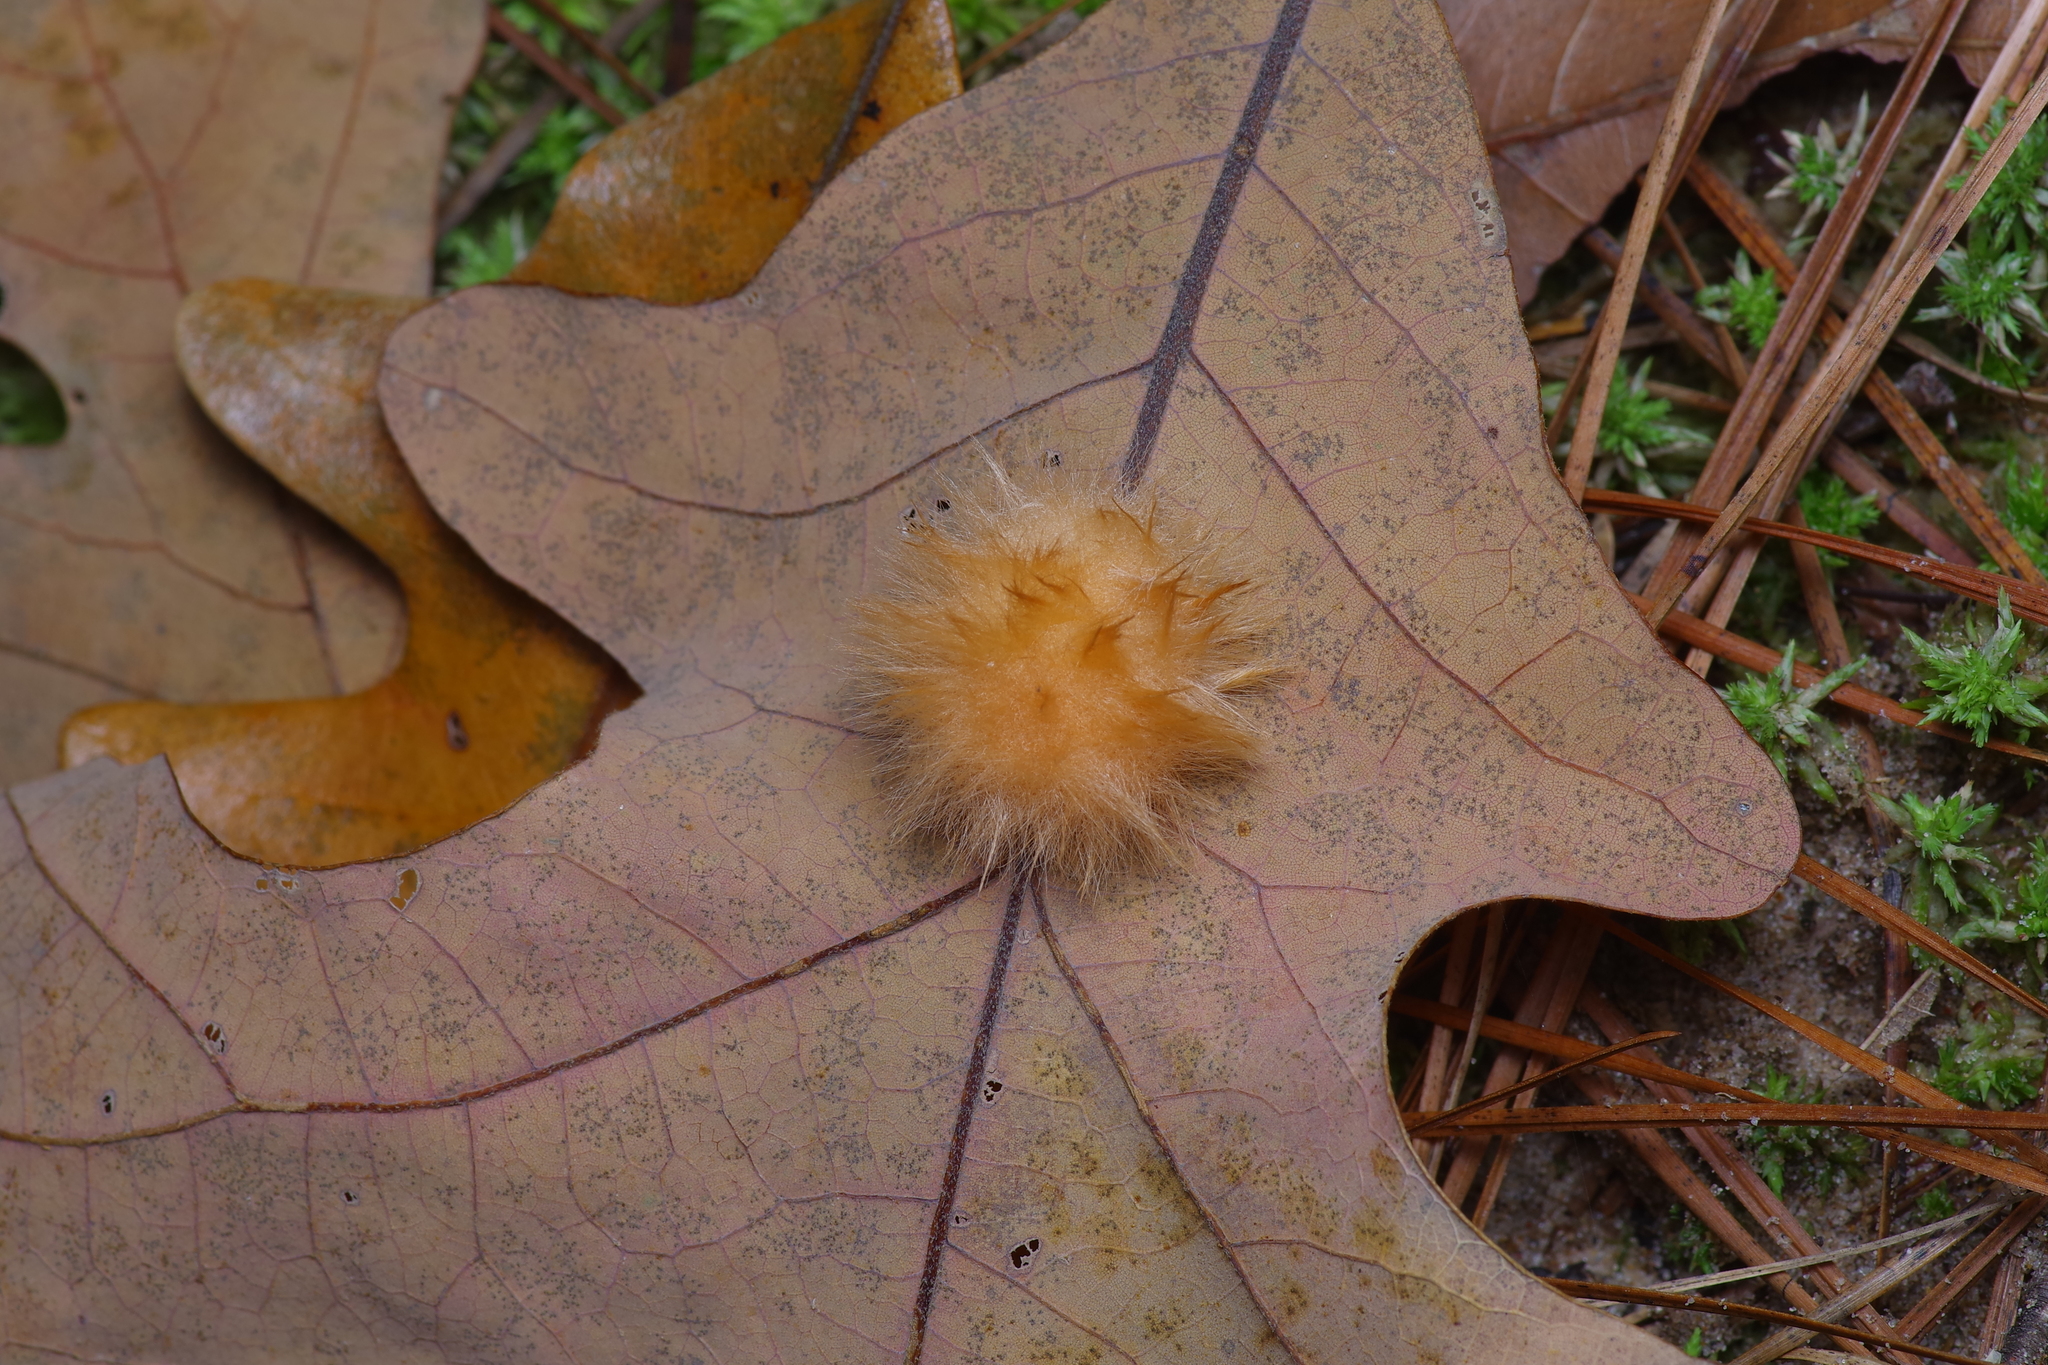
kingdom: Animalia
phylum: Arthropoda
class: Insecta
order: Hymenoptera
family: Cynipidae
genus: Andricus
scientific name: Andricus Druon pattoni
